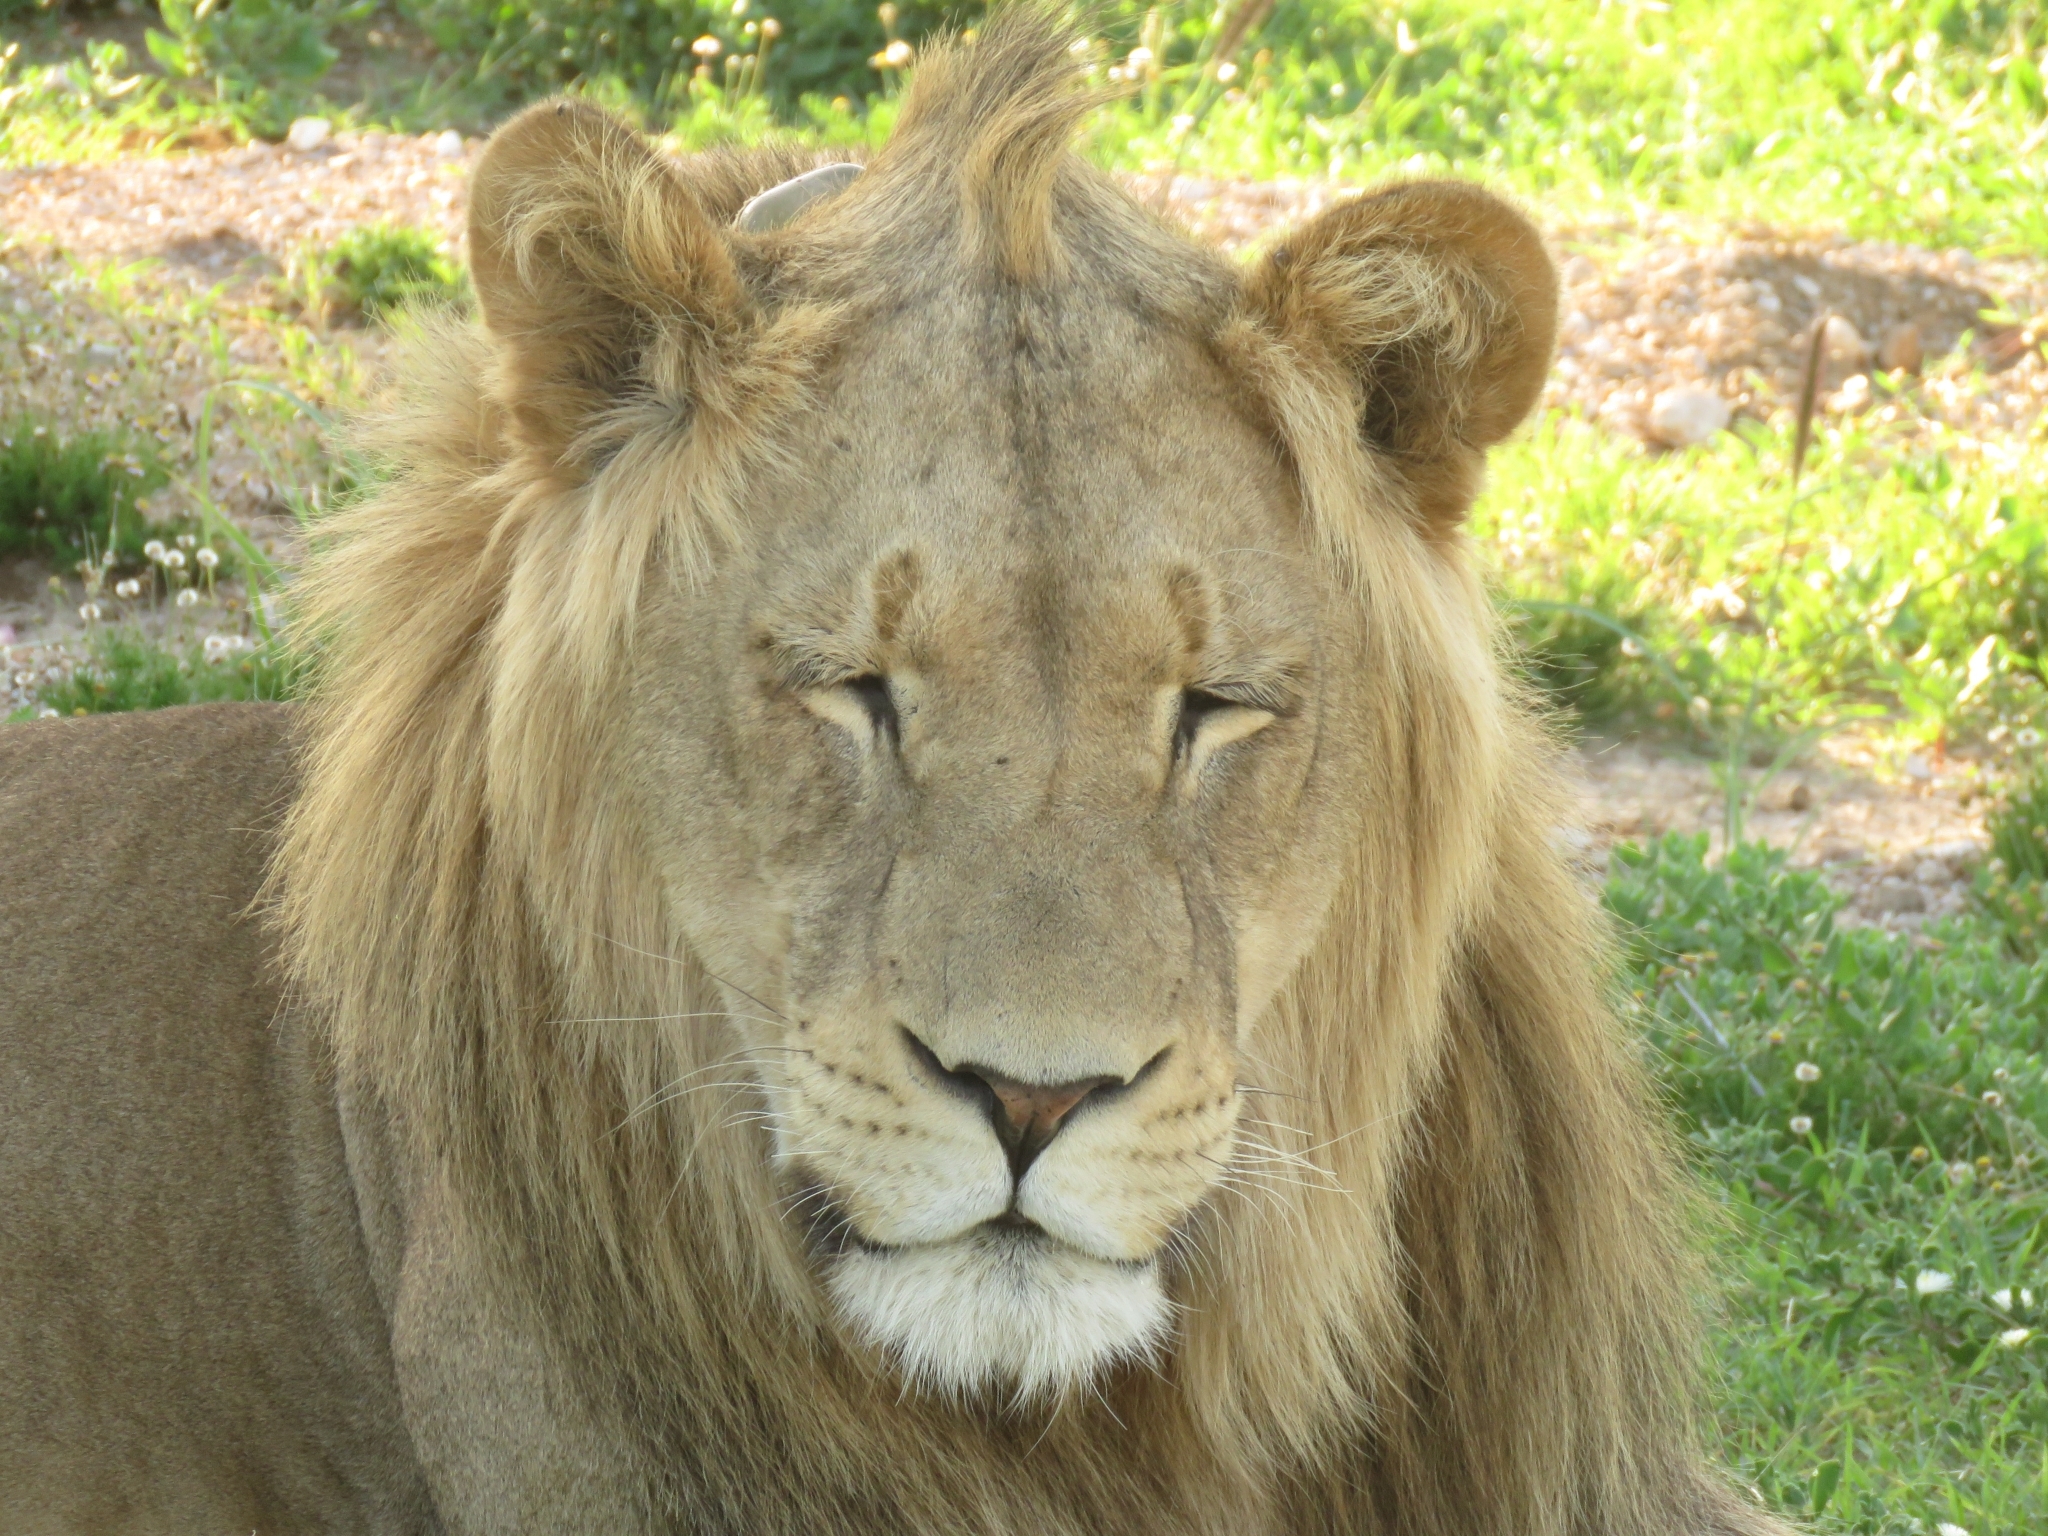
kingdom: Animalia
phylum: Chordata
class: Mammalia
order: Carnivora
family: Felidae
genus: Panthera
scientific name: Panthera leo
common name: Lion
